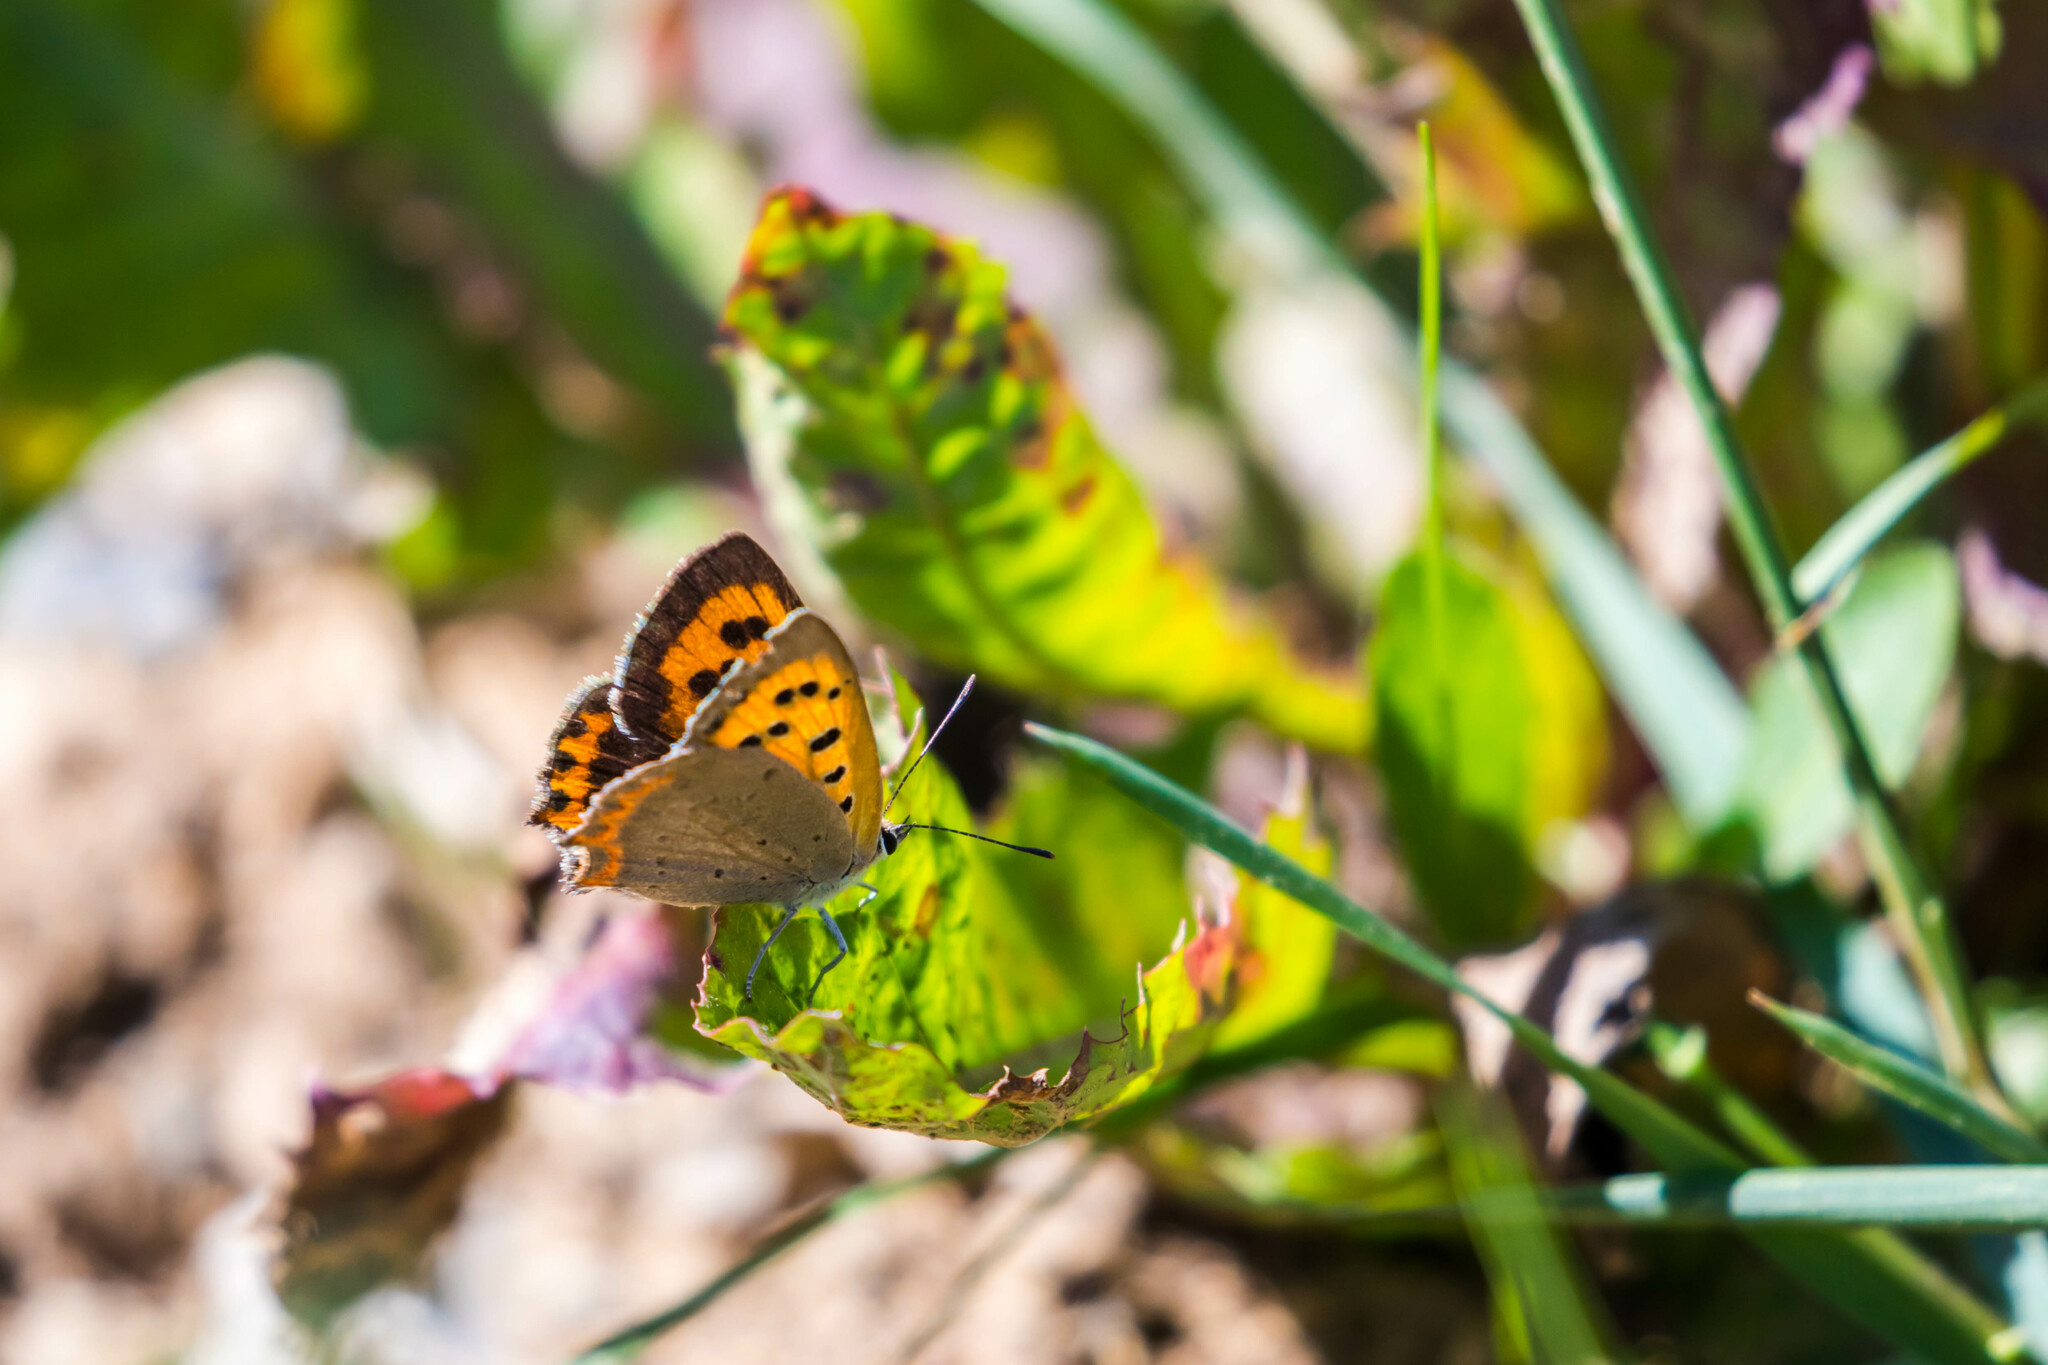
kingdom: Animalia
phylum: Arthropoda
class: Insecta
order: Lepidoptera
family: Lycaenidae
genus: Lycaena
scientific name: Lycaena phlaeas
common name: Small copper
